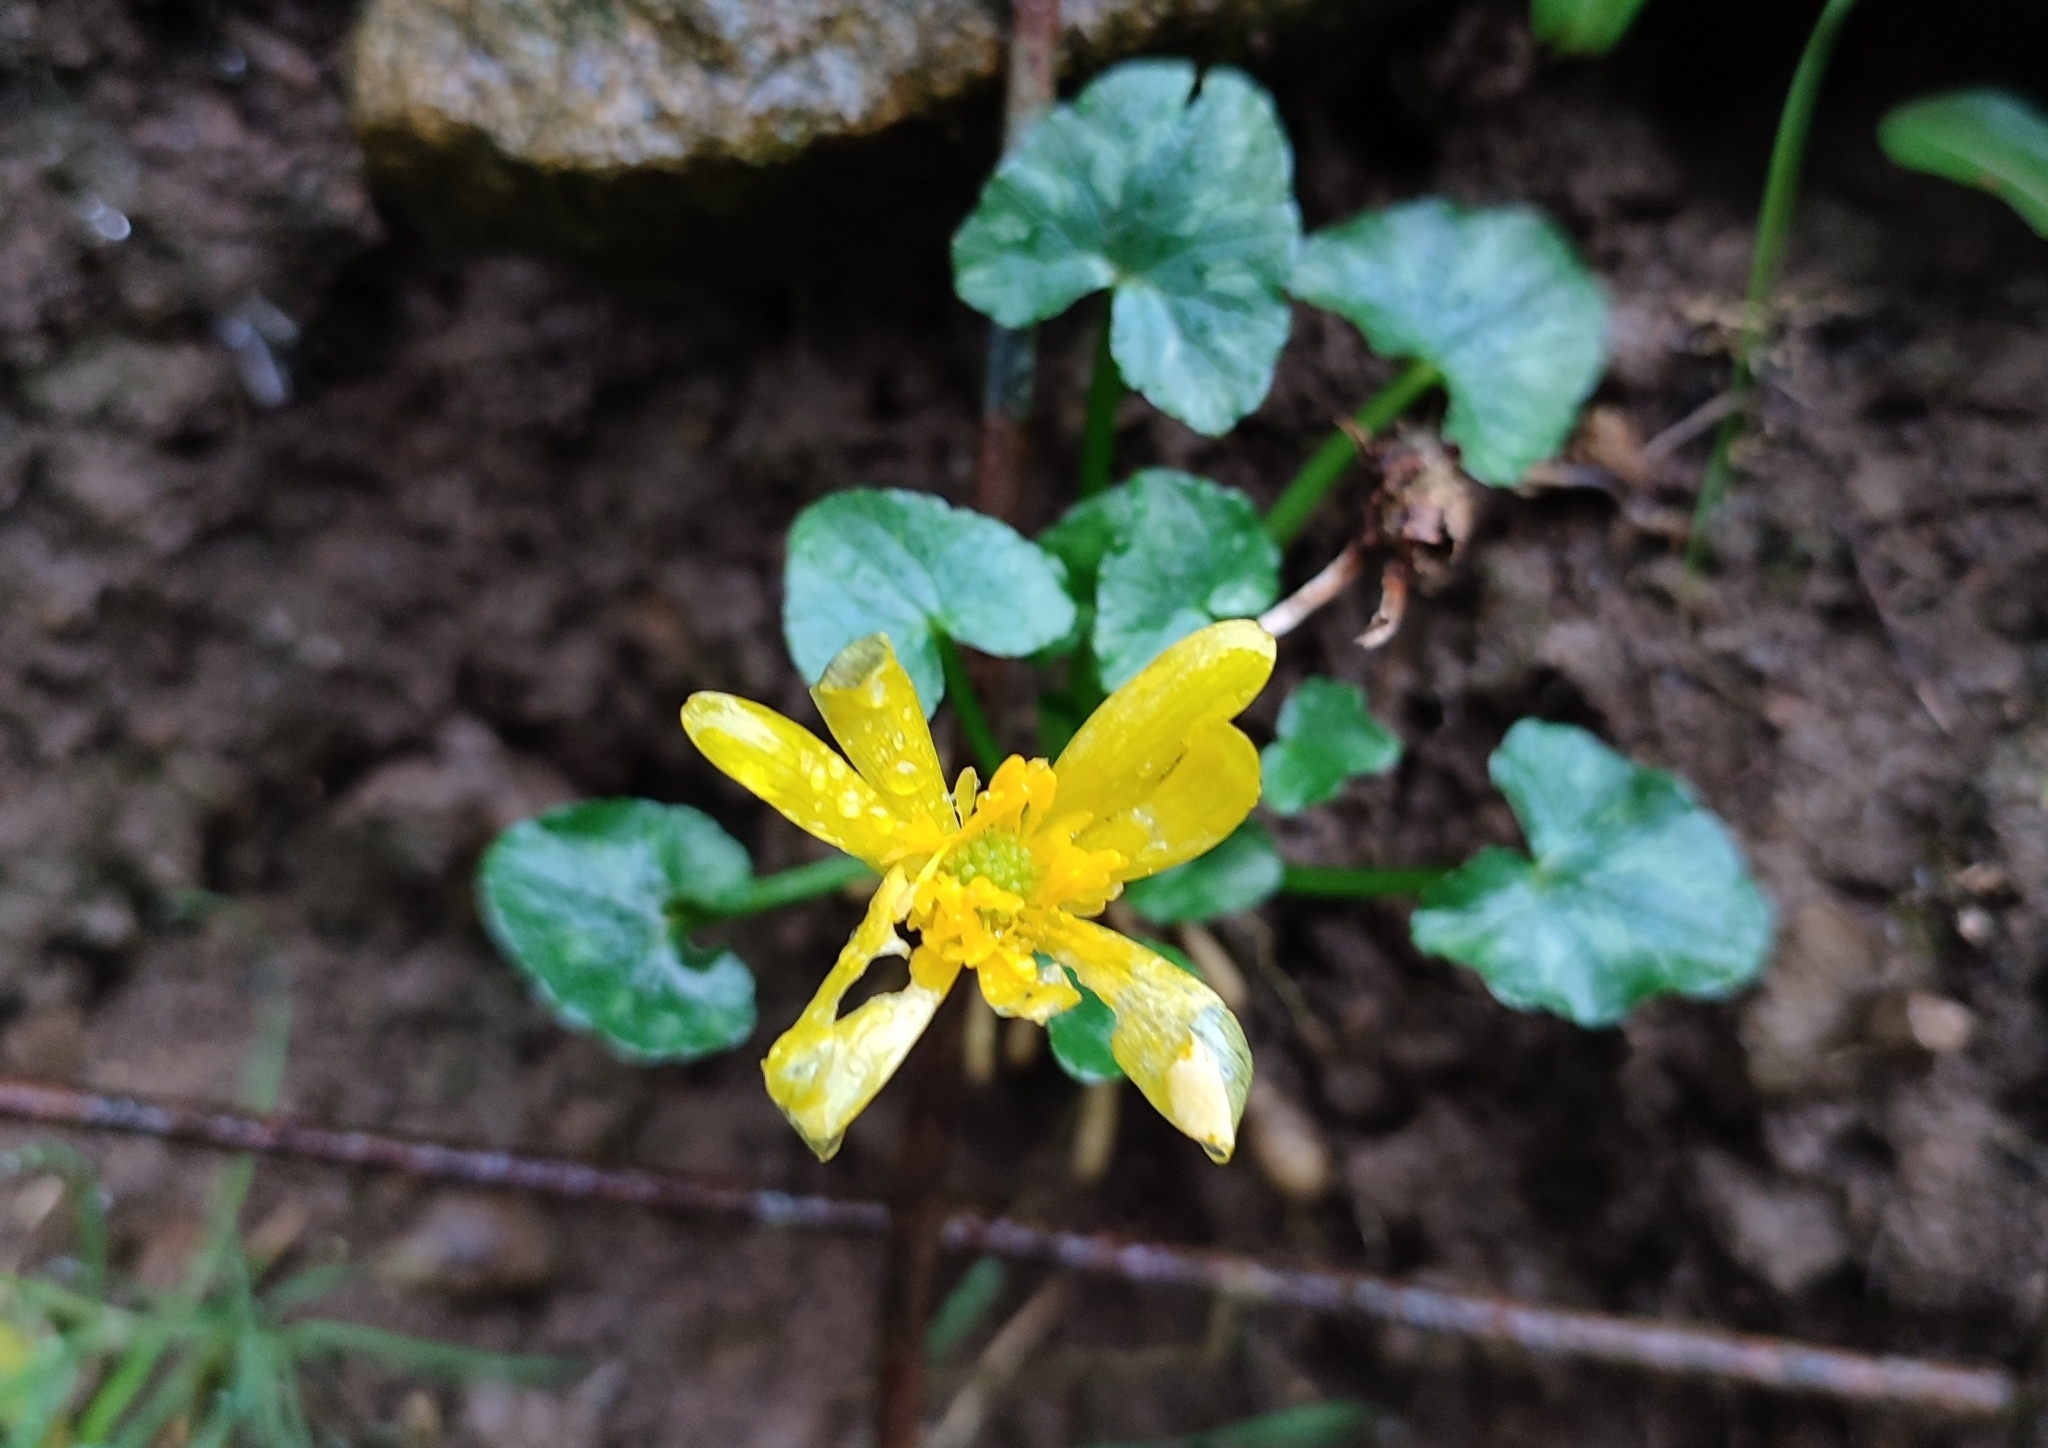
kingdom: Plantae
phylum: Tracheophyta
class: Magnoliopsida
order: Ranunculales
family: Ranunculaceae
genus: Ficaria
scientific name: Ficaria verna
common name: Lesser celandine
